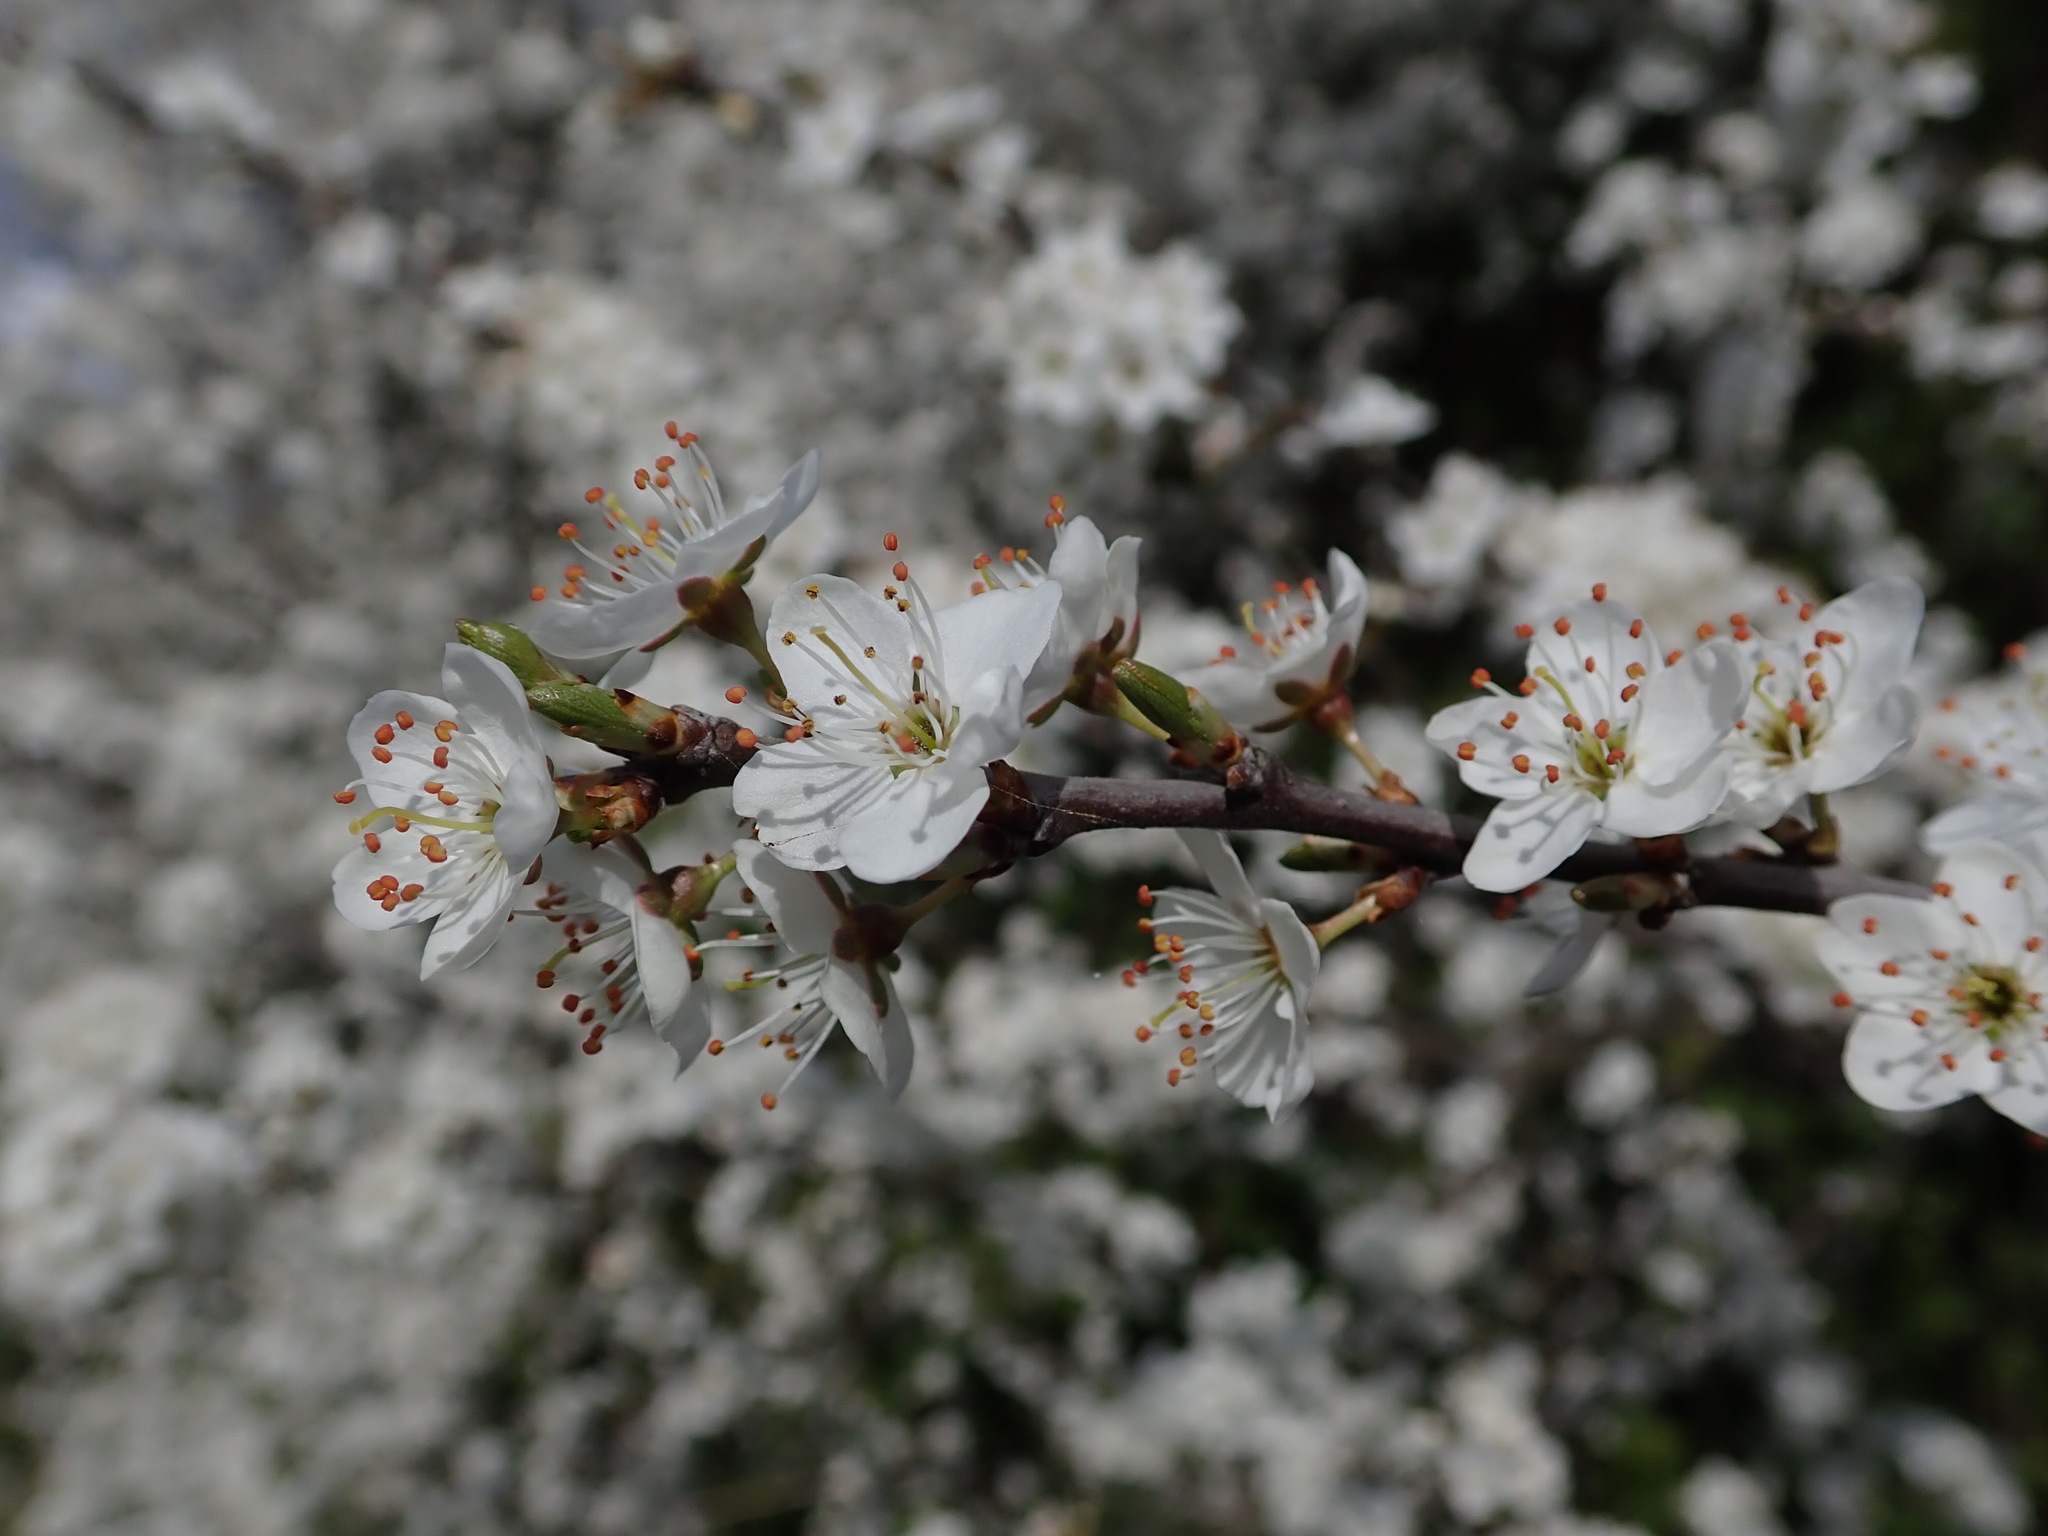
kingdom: Plantae
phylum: Tracheophyta
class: Magnoliopsida
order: Rosales
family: Rosaceae
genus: Prunus
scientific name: Prunus spinosa
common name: Blackthorn
